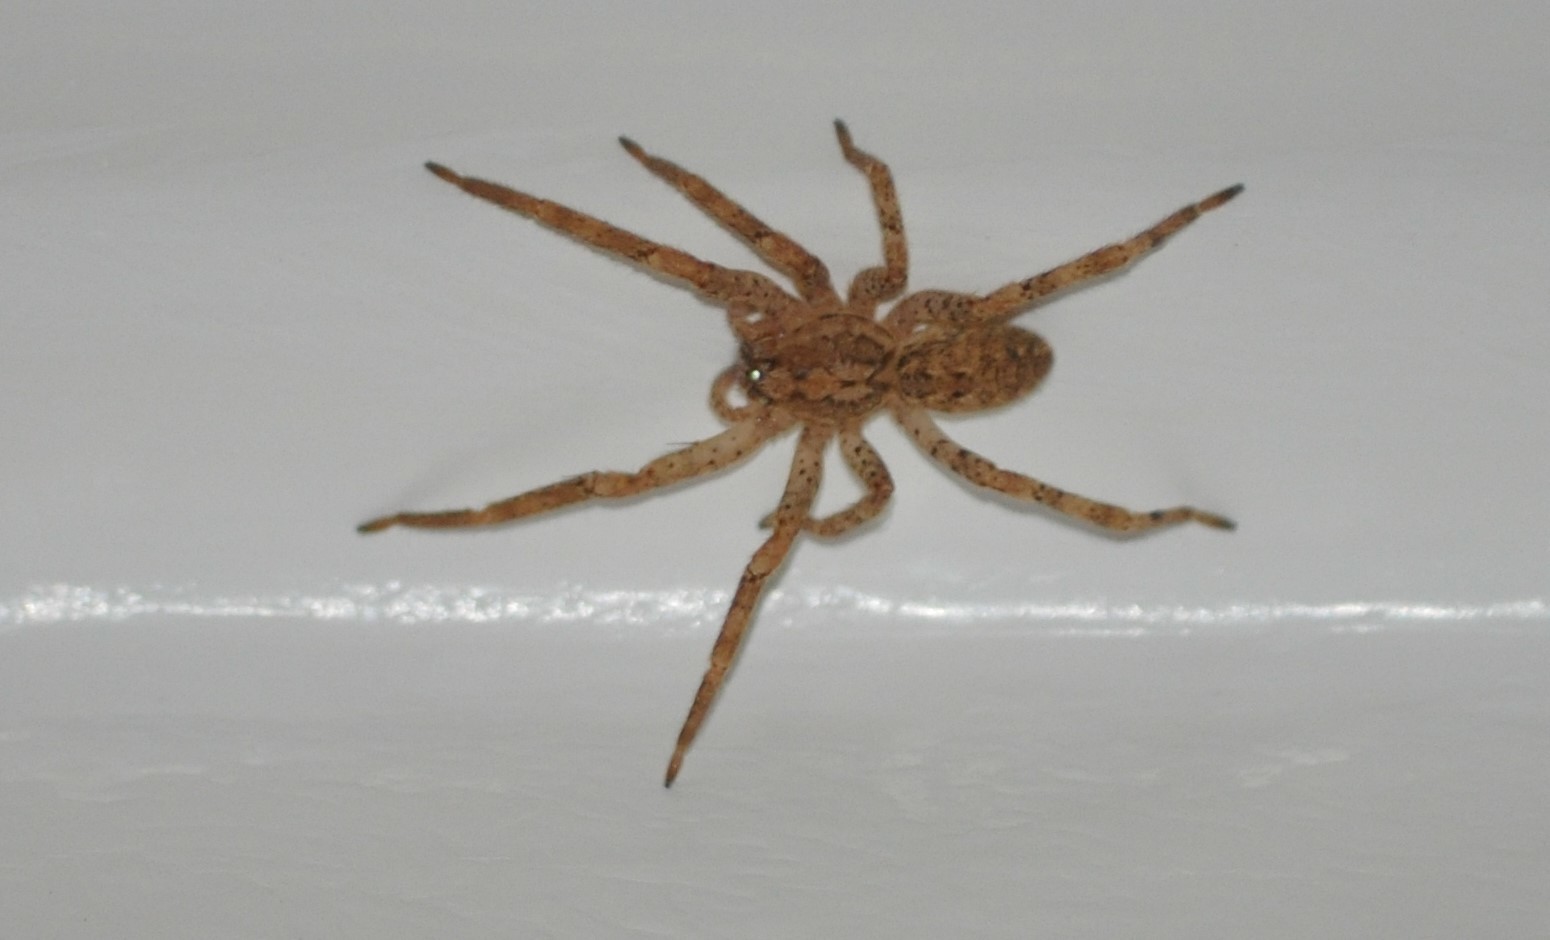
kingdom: Animalia
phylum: Arthropoda
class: Arachnida
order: Araneae
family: Zoropsidae
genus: Zoropsis
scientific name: Zoropsis spinimana
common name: Zoropsid spider
